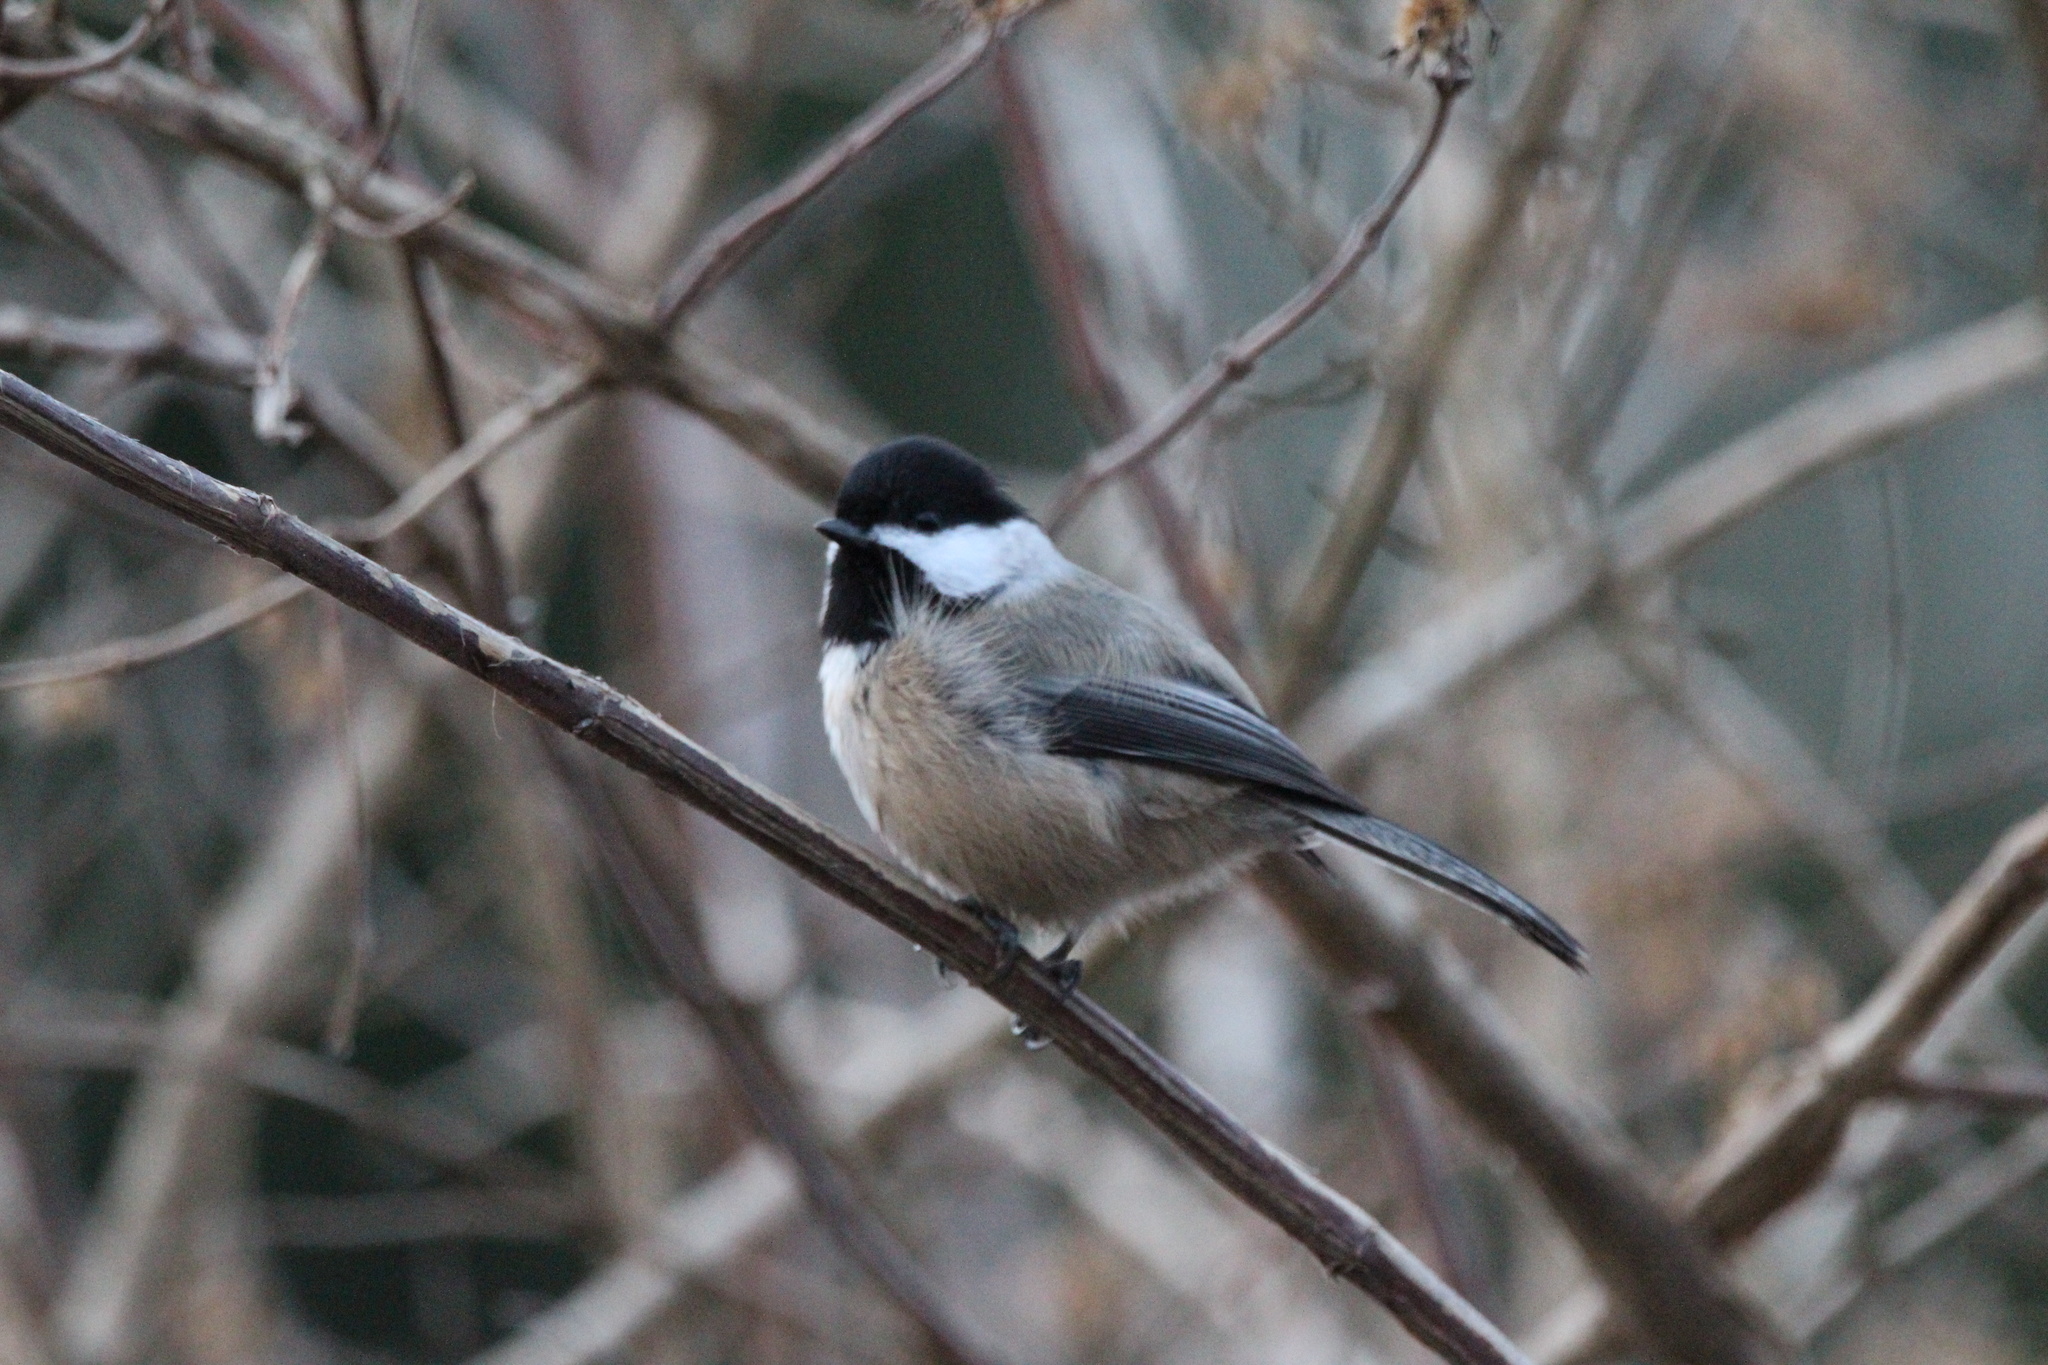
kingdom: Animalia
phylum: Chordata
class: Aves
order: Passeriformes
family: Paridae
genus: Poecile
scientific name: Poecile atricapillus
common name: Black-capped chickadee
